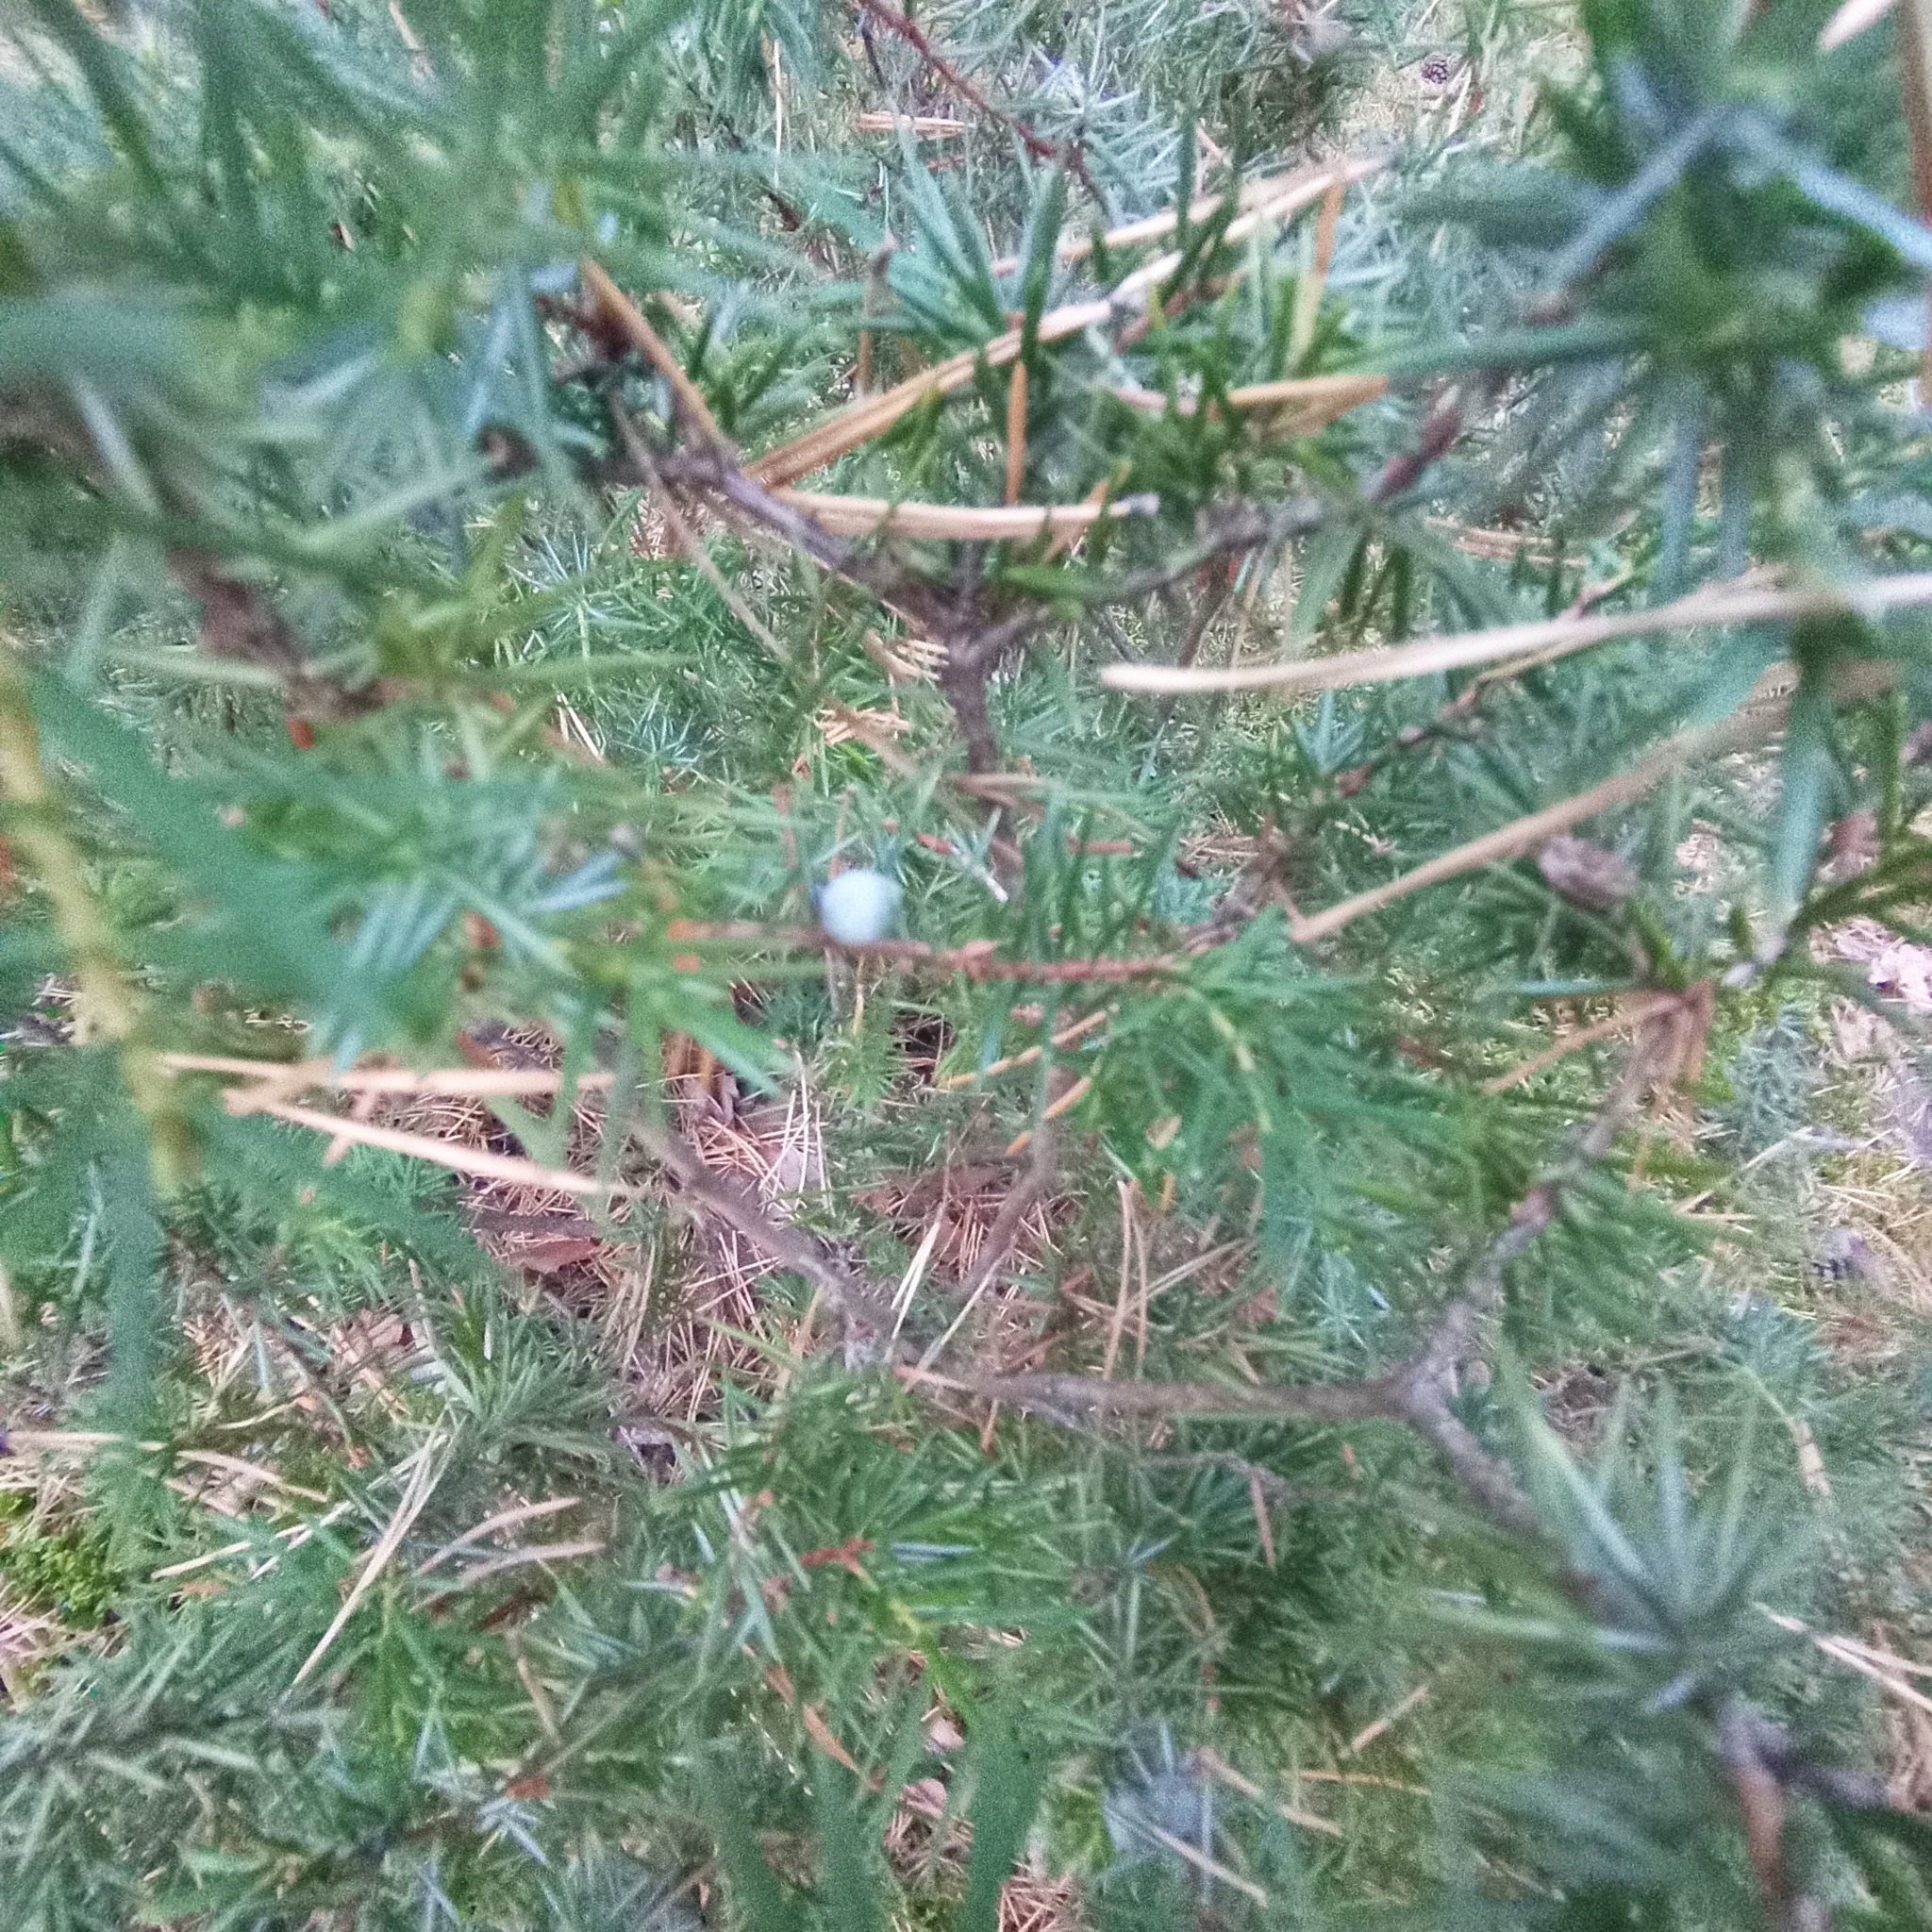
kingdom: Plantae
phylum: Tracheophyta
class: Pinopsida
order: Pinales
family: Cupressaceae
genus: Juniperus
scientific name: Juniperus communis
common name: Common juniper
